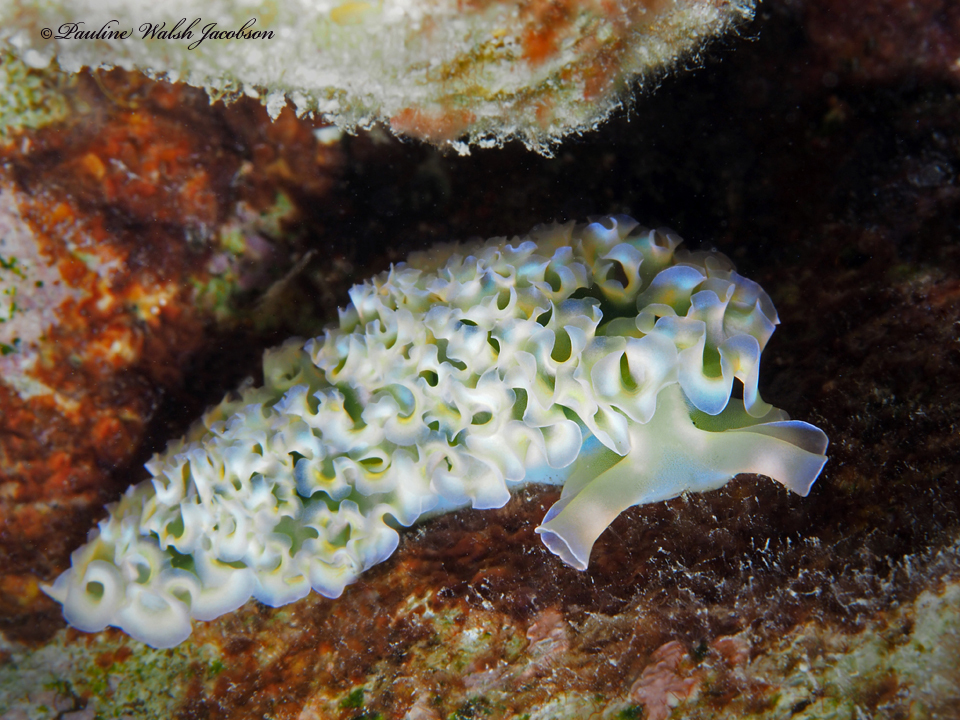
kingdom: Animalia
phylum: Mollusca
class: Gastropoda
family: Plakobranchidae
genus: Elysia
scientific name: Elysia crispata
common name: Lettuce slug
